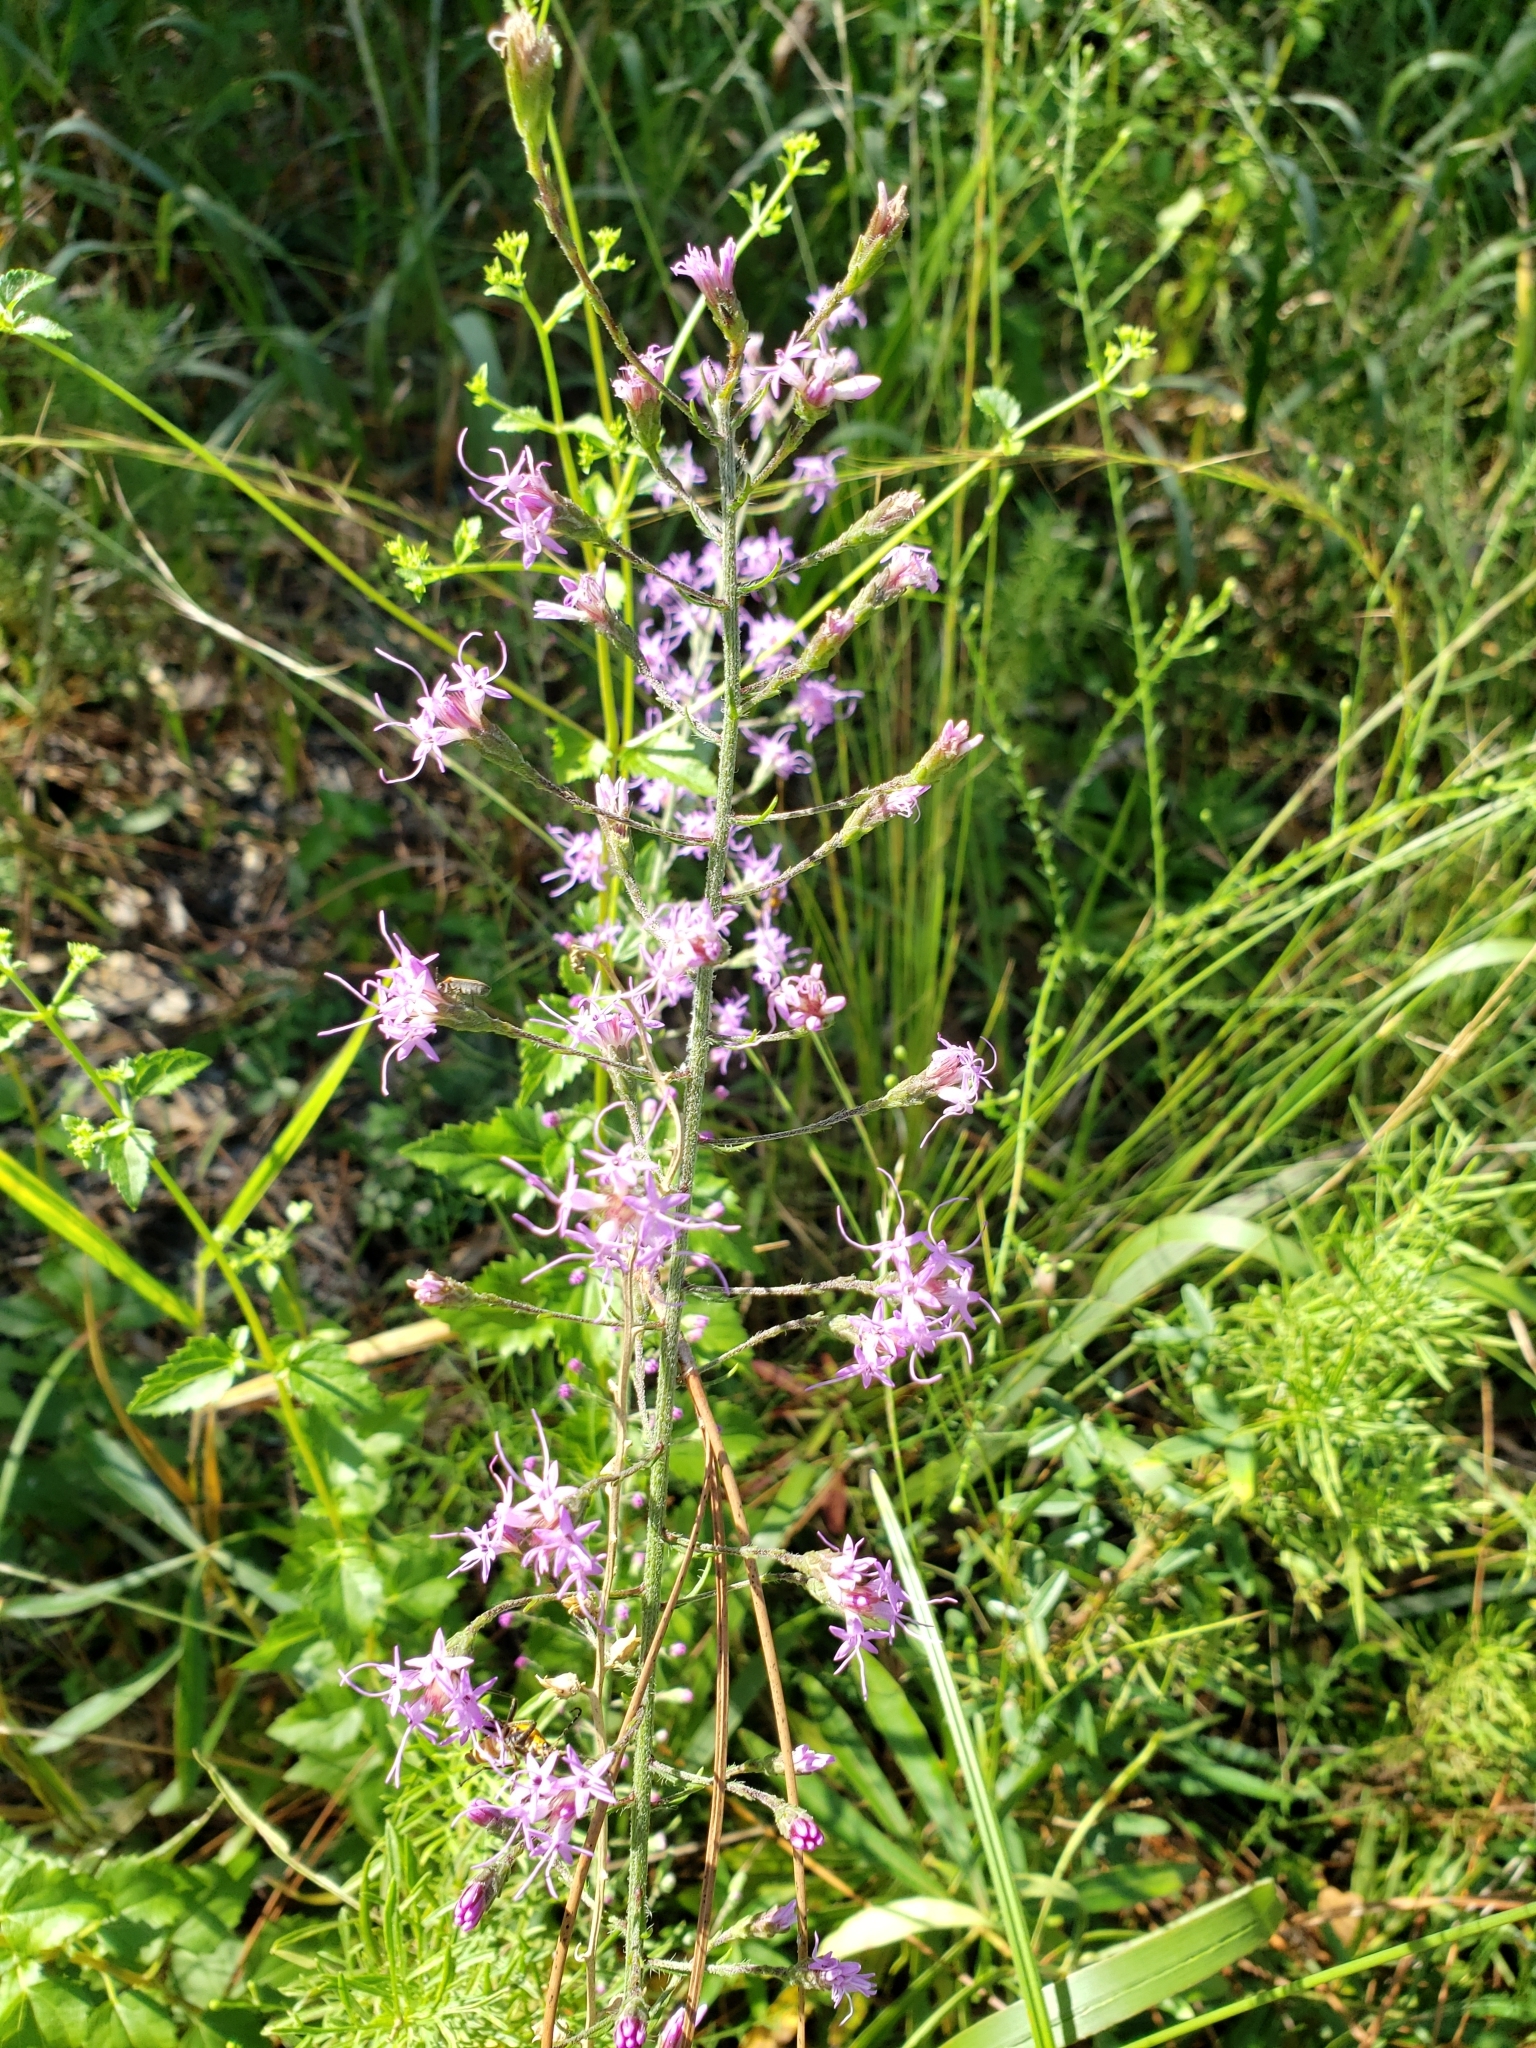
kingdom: Plantae
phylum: Tracheophyta
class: Magnoliopsida
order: Asterales
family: Asteraceae
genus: Liatris
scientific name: Liatris gracilis
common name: Slender gayfeather
